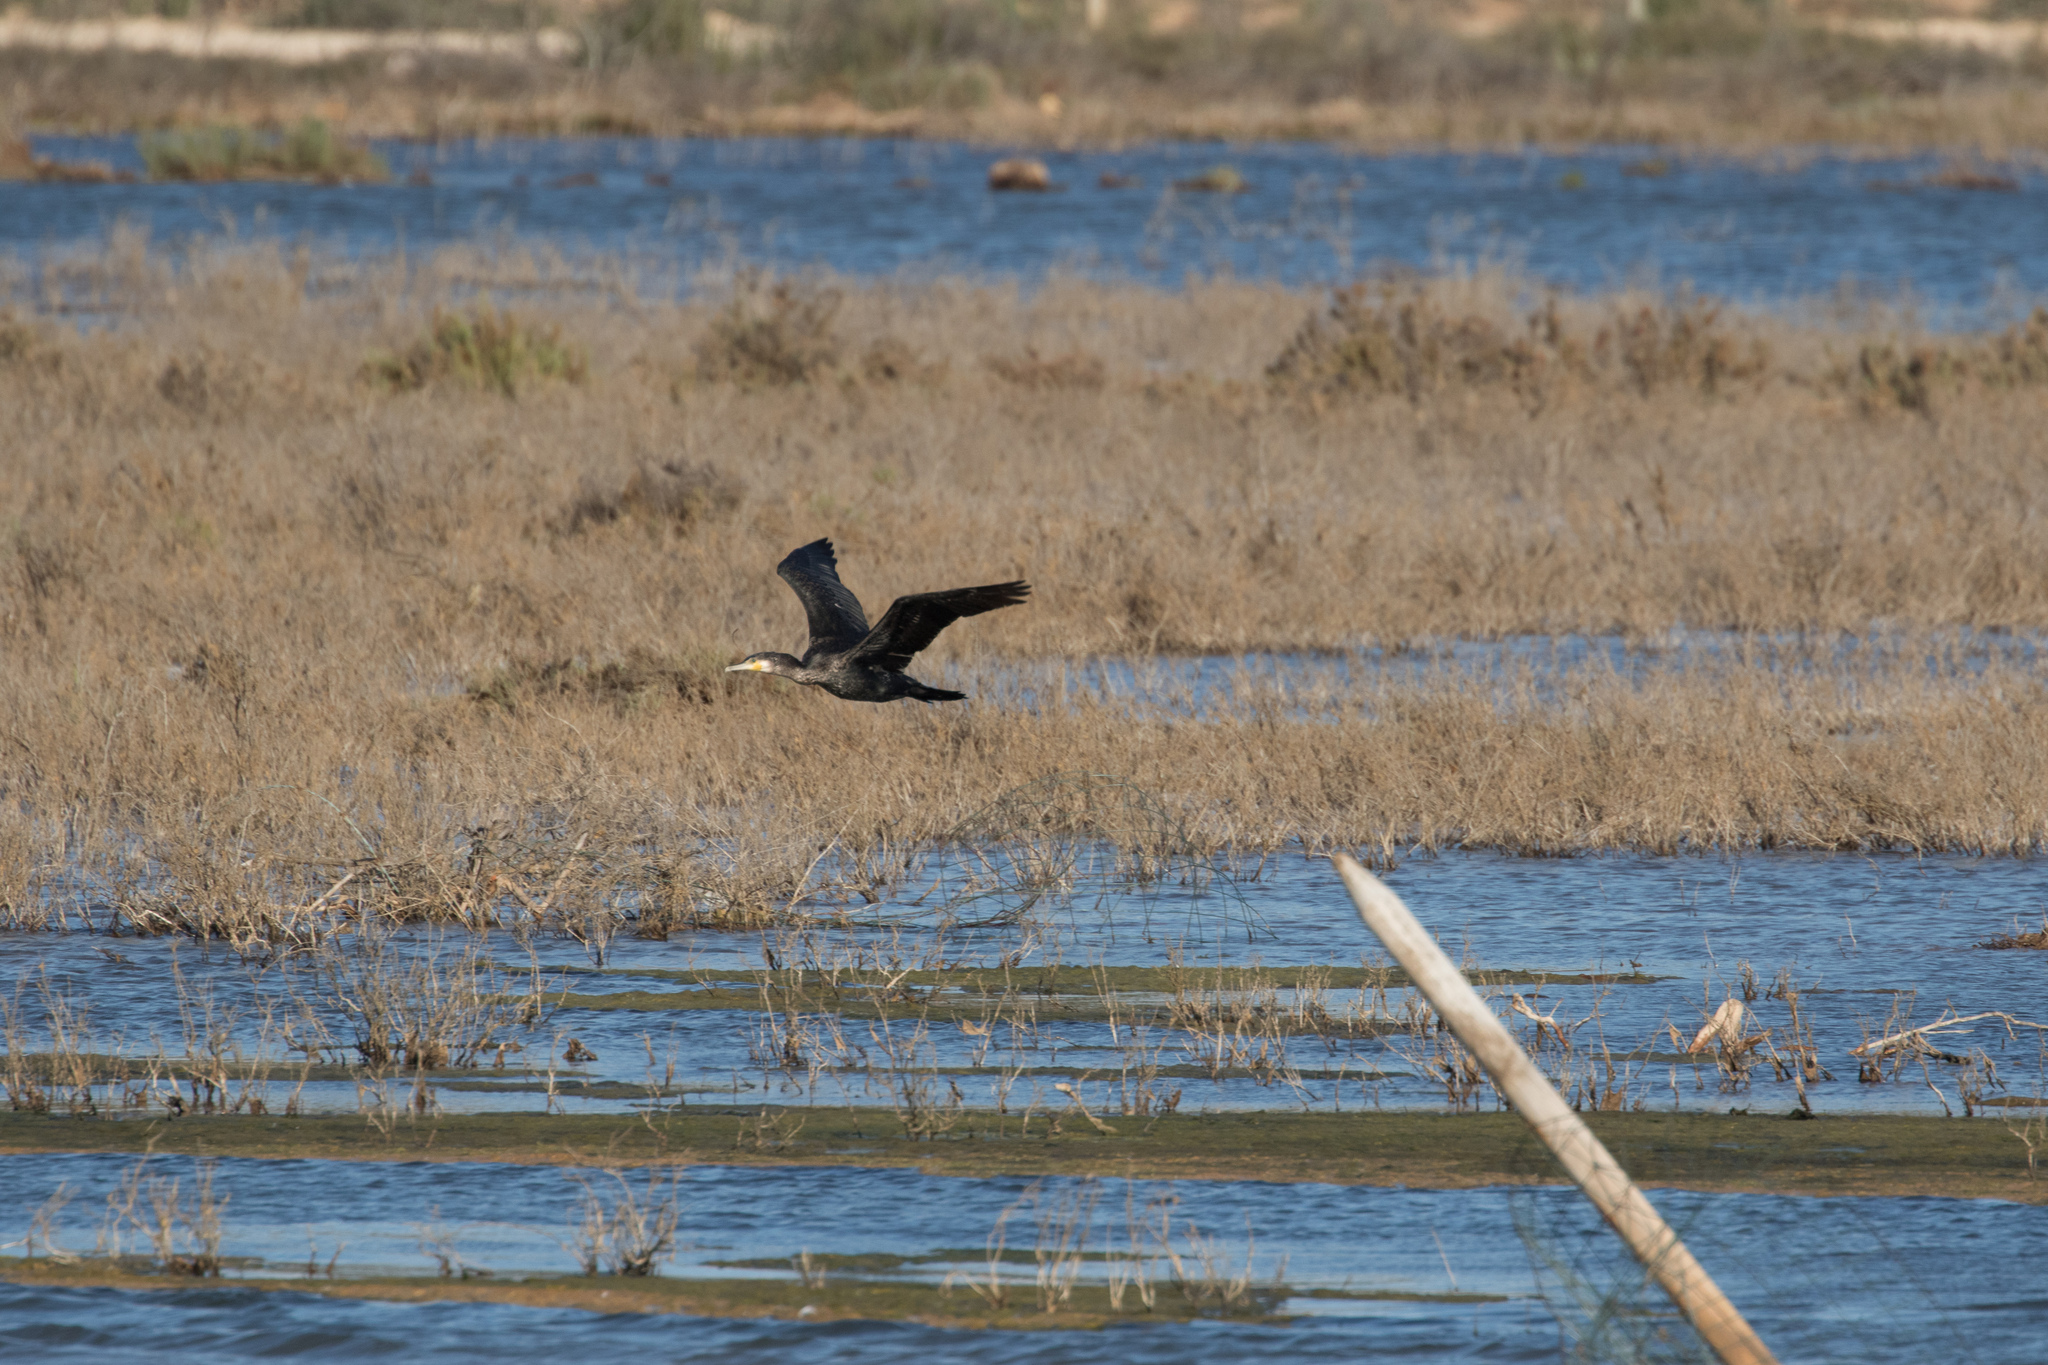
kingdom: Animalia
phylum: Chordata
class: Aves
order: Suliformes
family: Phalacrocoracidae
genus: Phalacrocorax
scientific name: Phalacrocorax carbo
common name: Great cormorant
